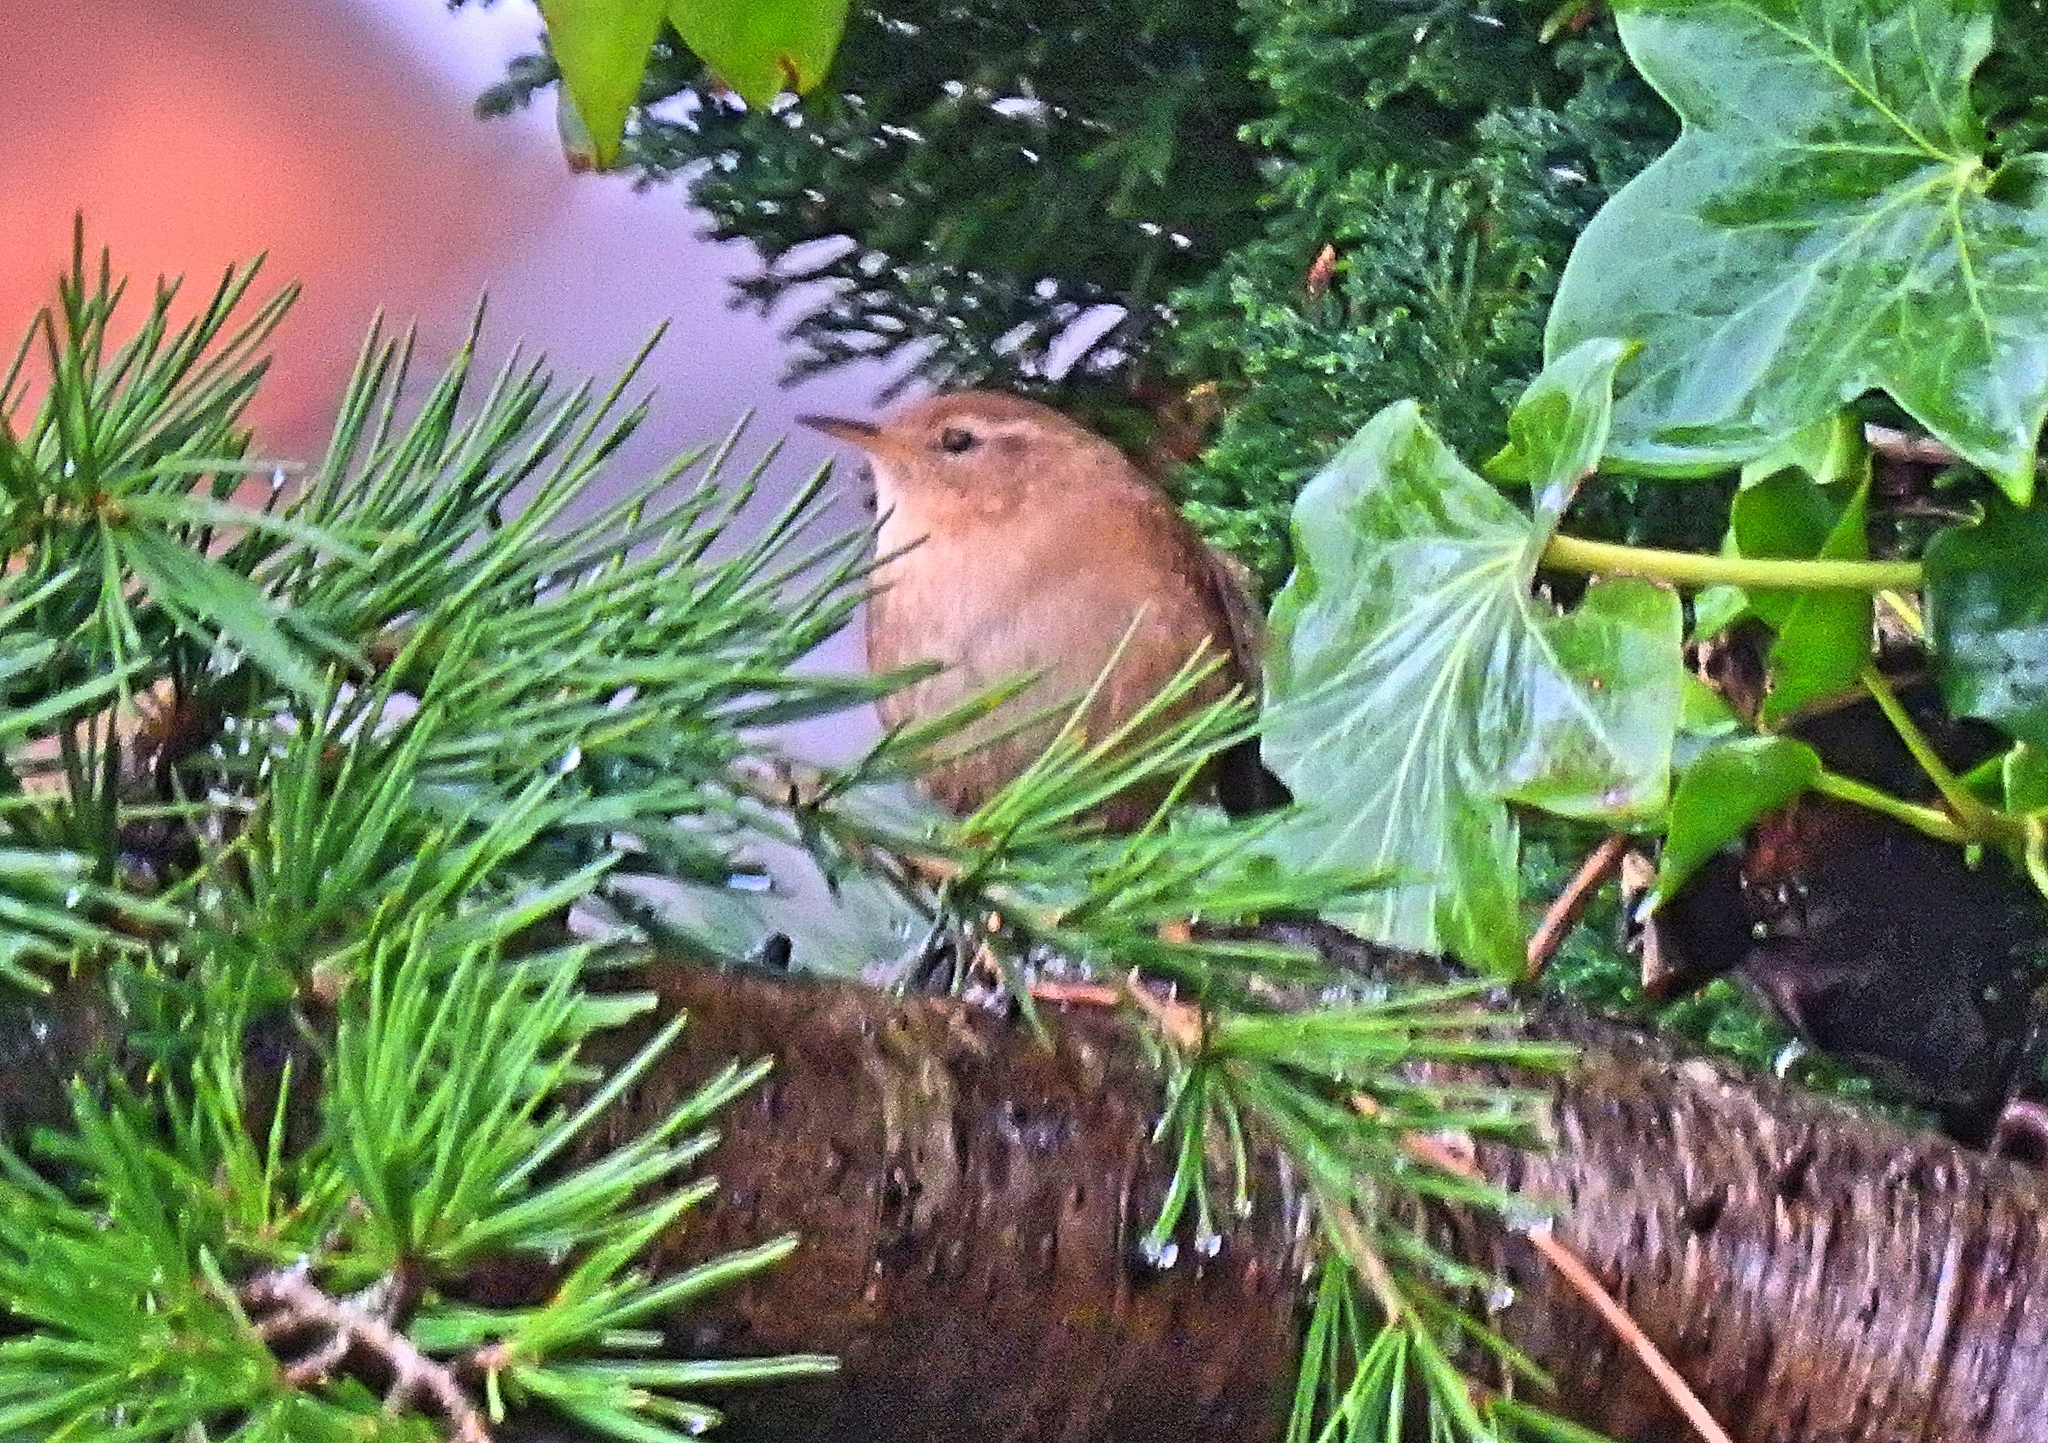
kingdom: Animalia
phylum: Chordata
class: Aves
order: Passeriformes
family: Troglodytidae
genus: Troglodytes
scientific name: Troglodytes troglodytes
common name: Eurasian wren
